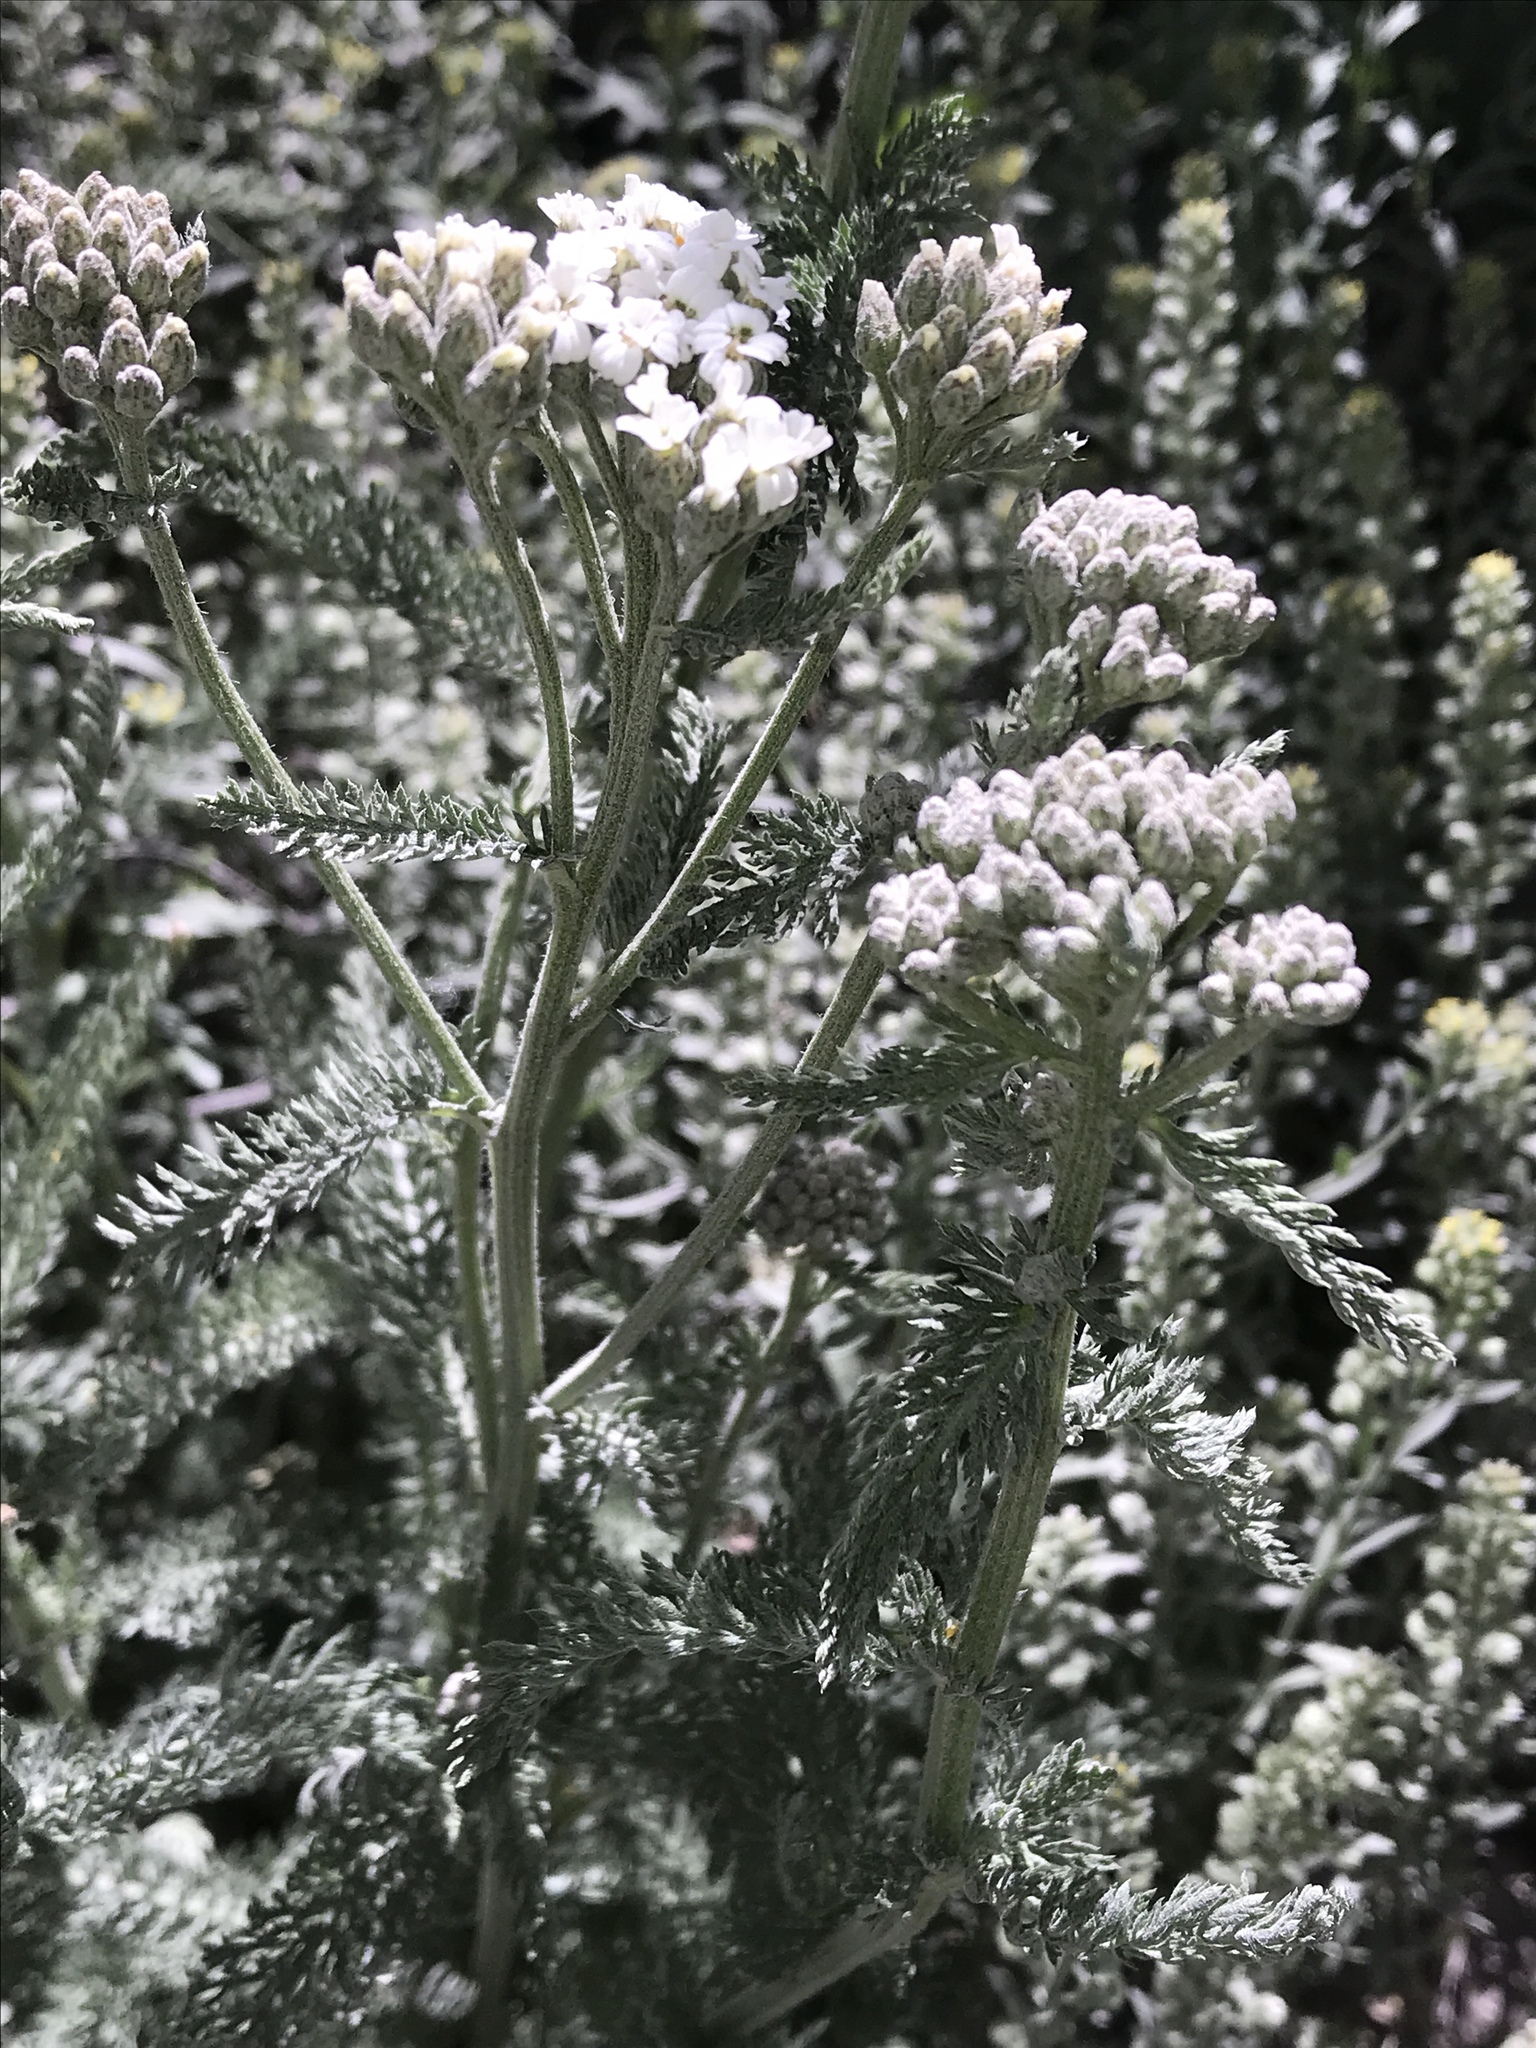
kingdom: Plantae
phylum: Tracheophyta
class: Magnoliopsida
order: Asterales
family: Asteraceae
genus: Achillea
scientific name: Achillea millefolium
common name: Yarrow
